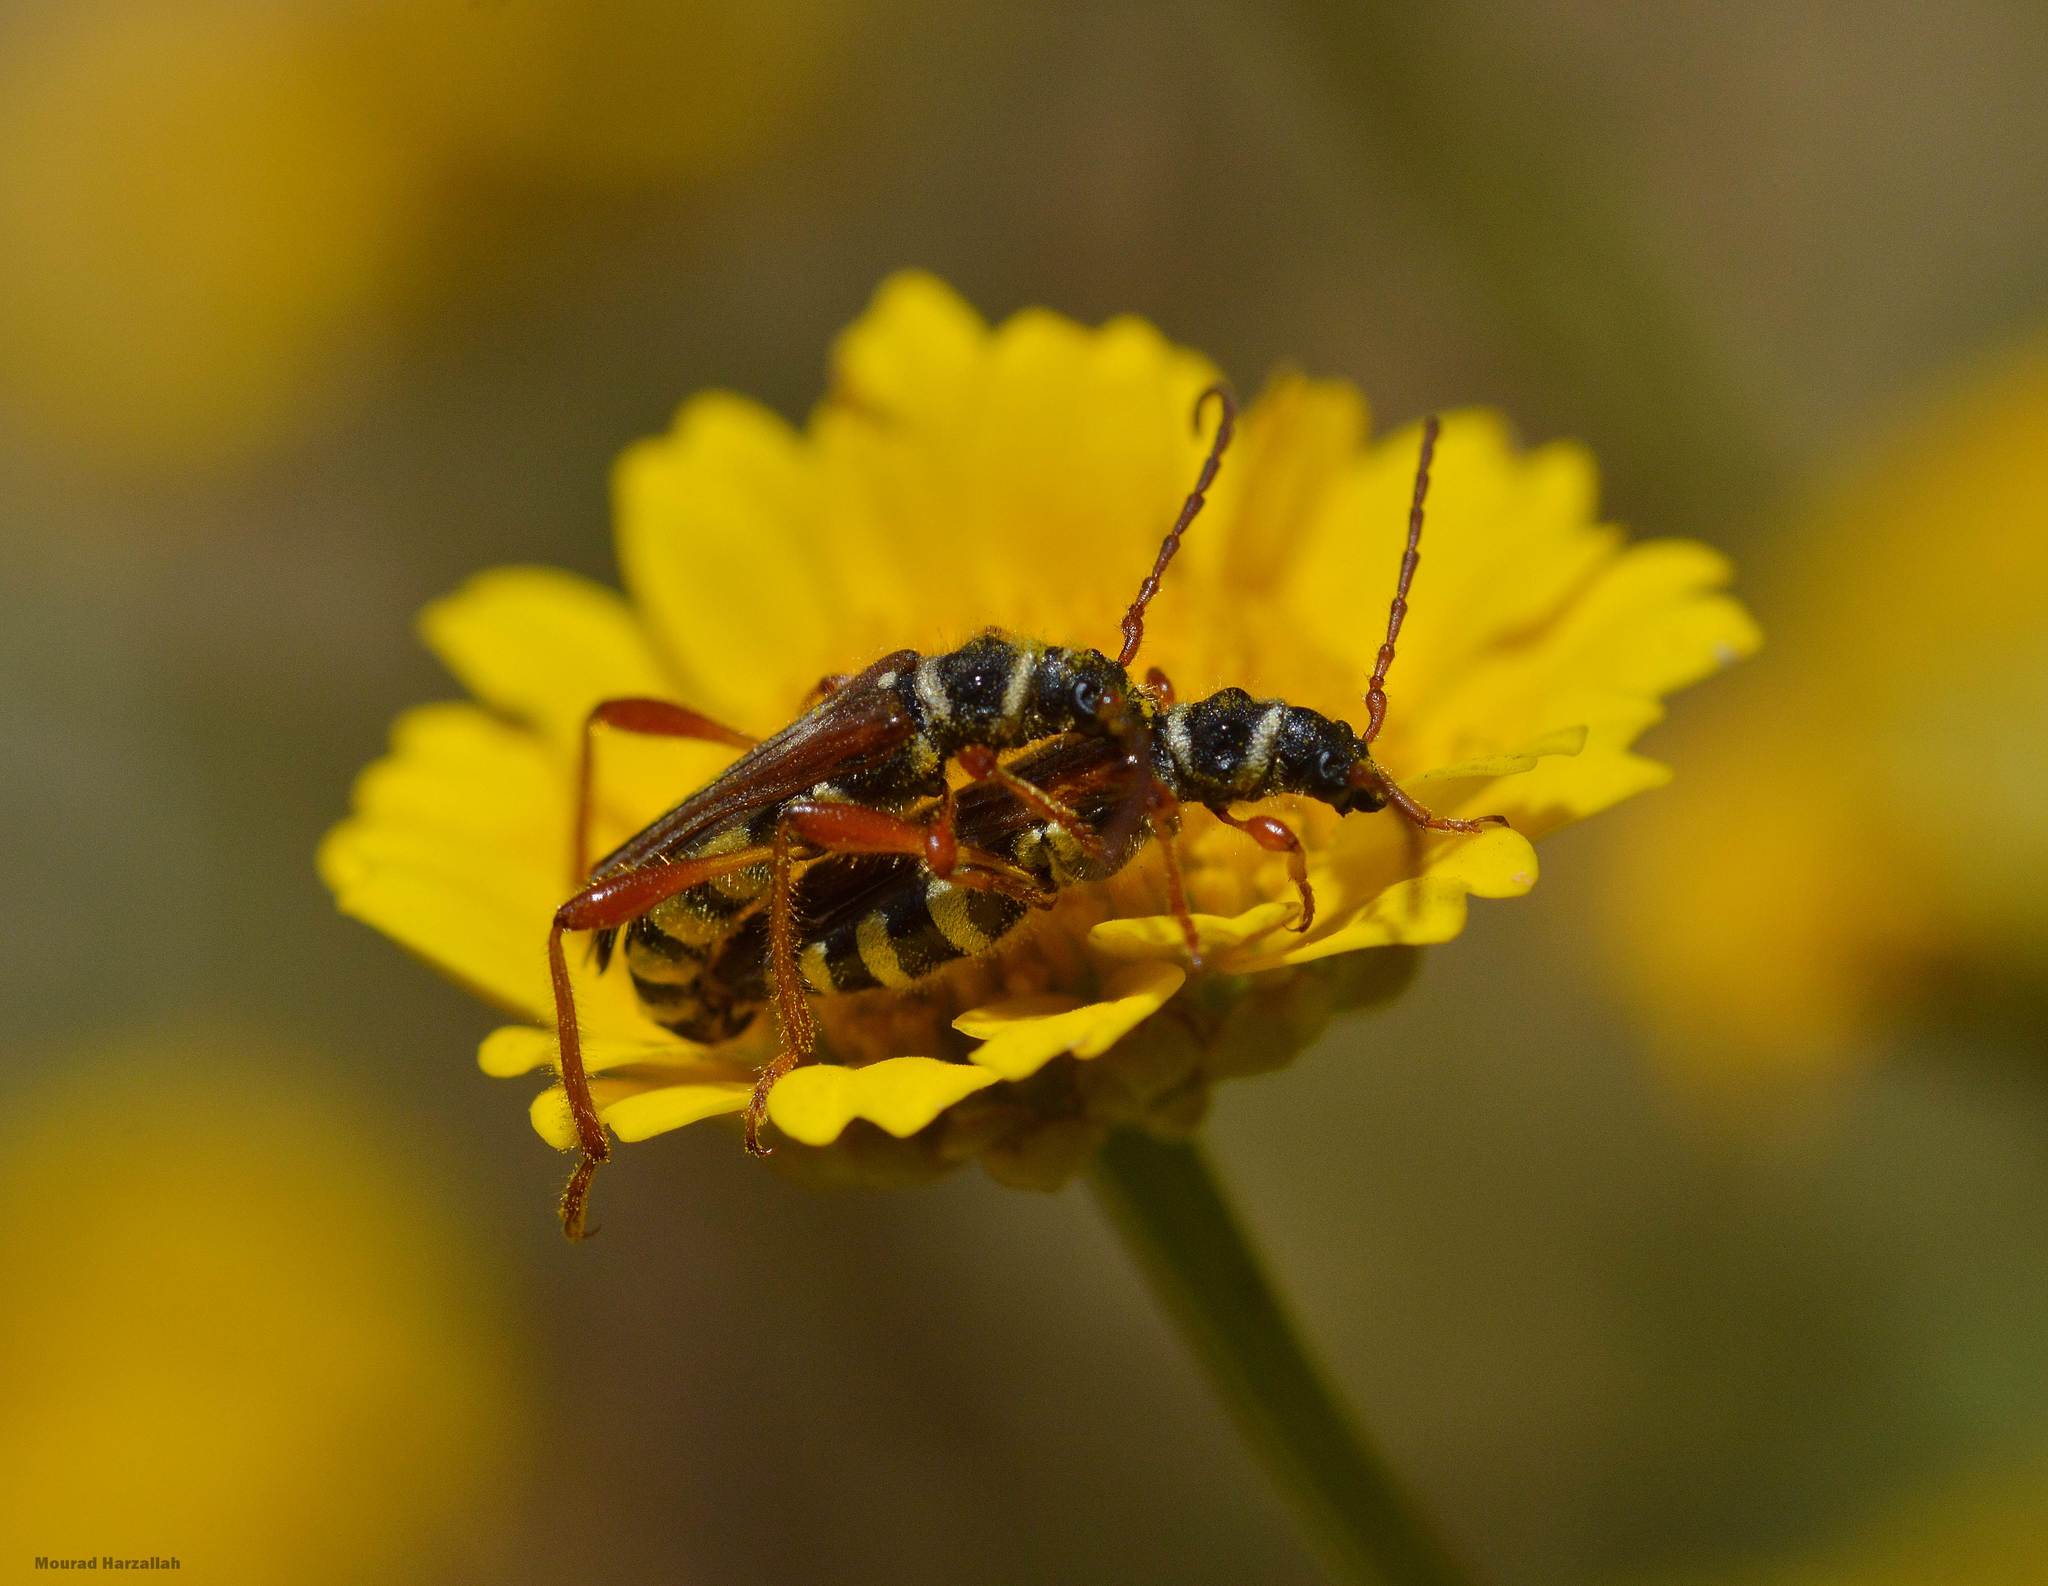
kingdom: Animalia
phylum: Arthropoda
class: Insecta
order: Coleoptera
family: Cerambycidae
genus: Stenopterus
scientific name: Stenopterus mauritanicus
